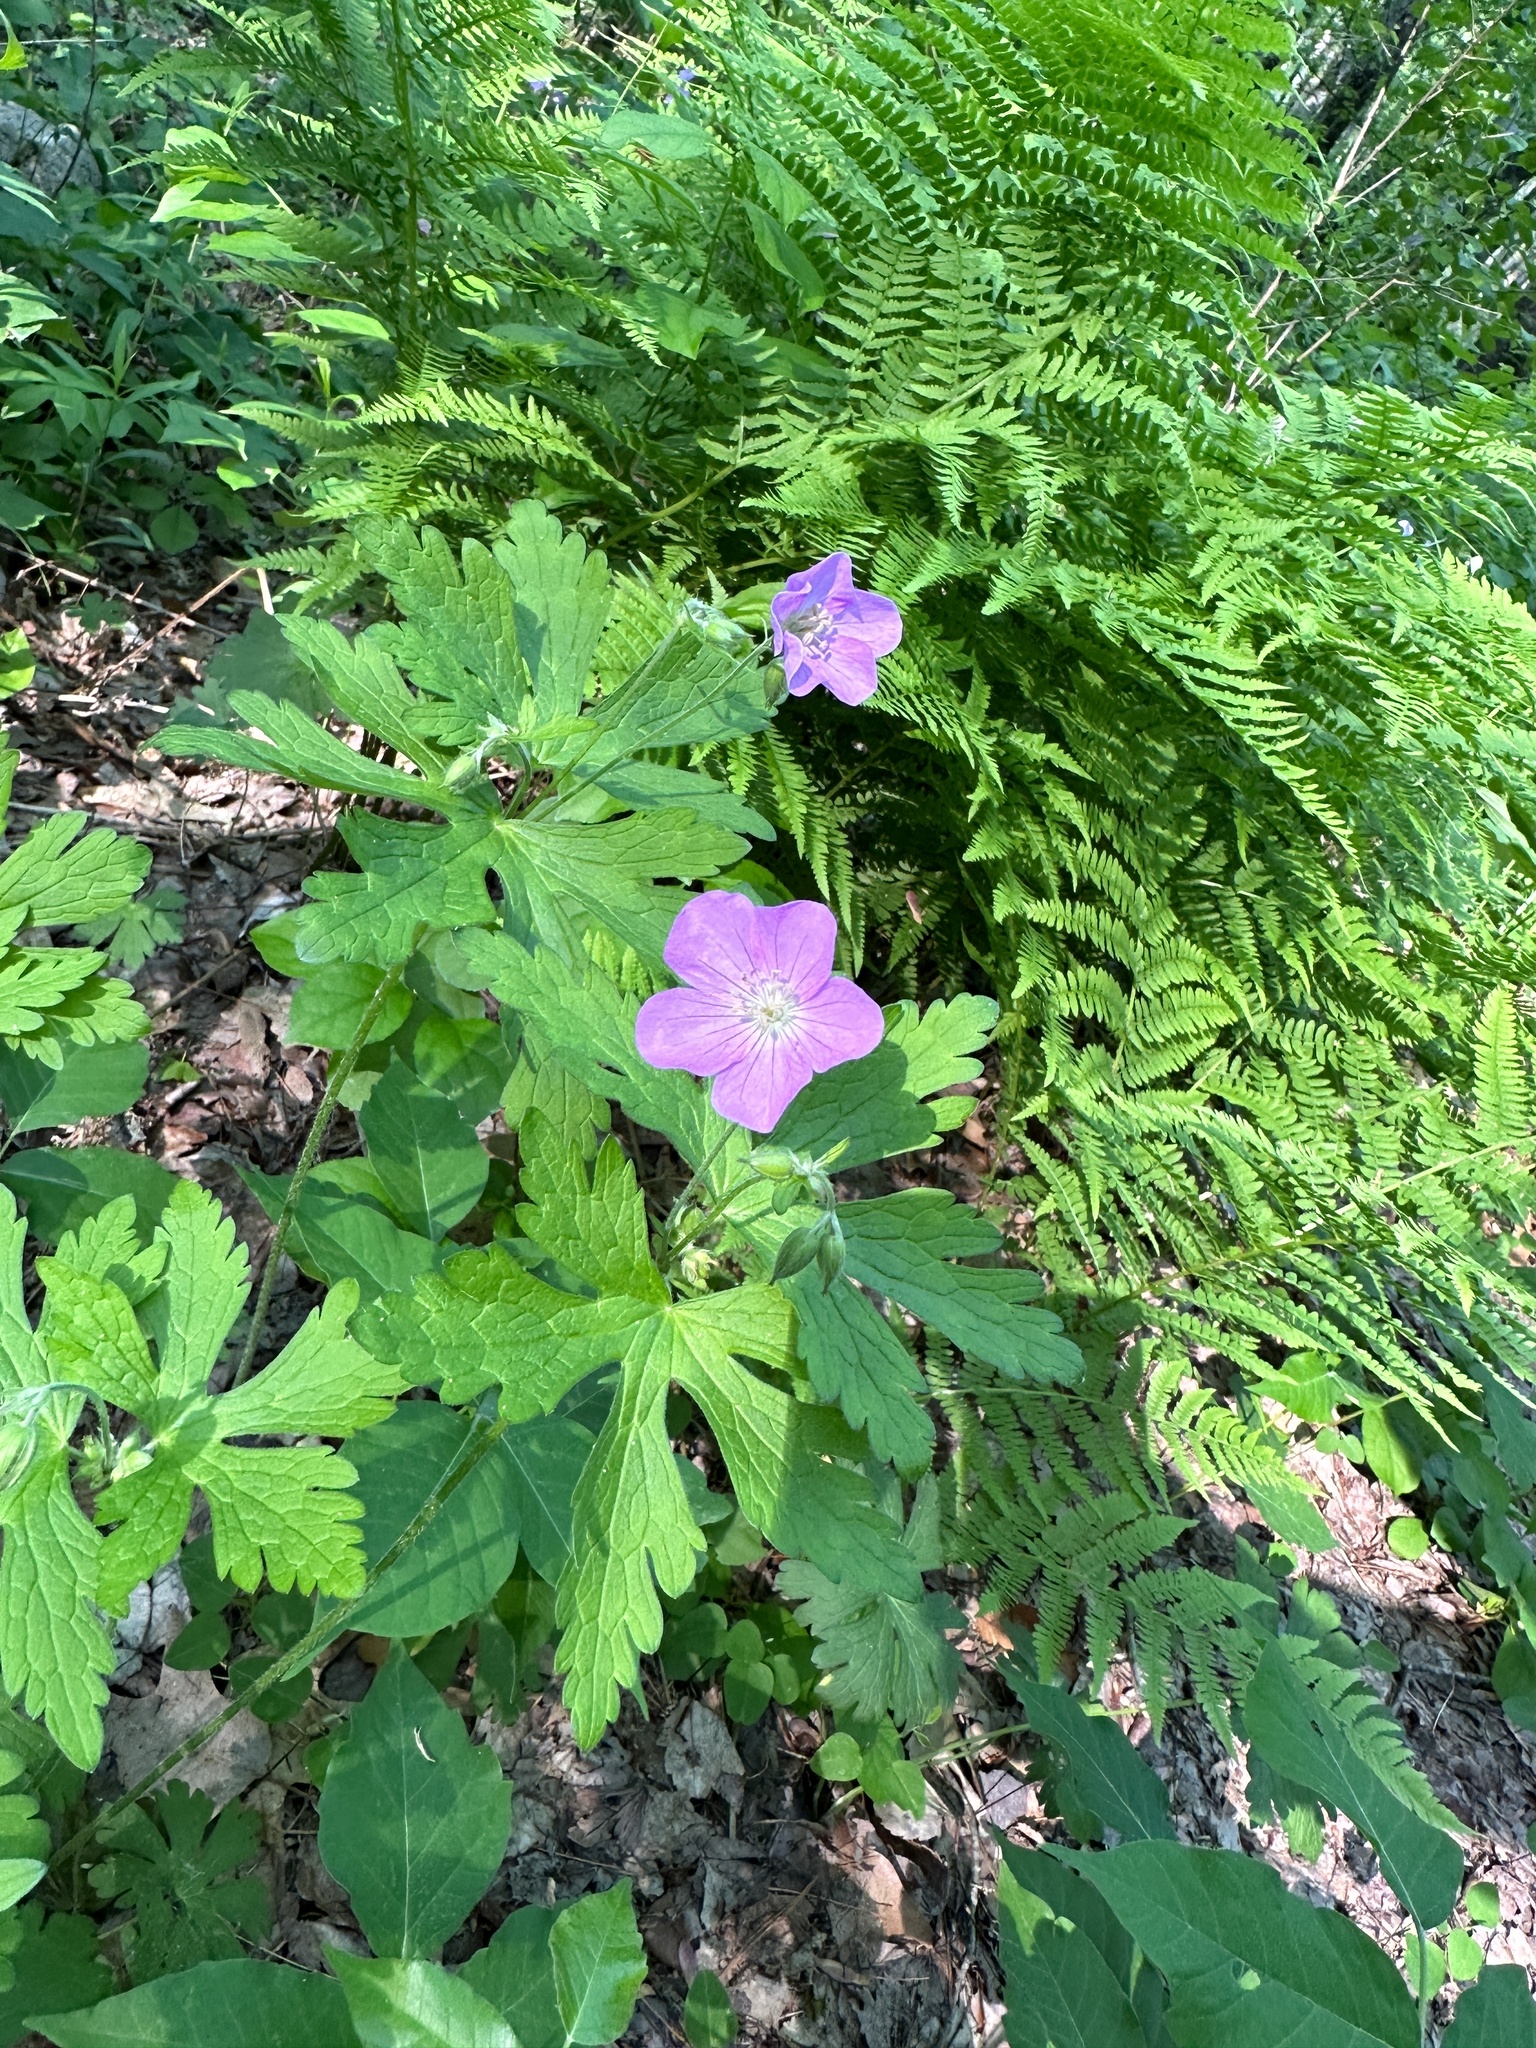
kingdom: Plantae
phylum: Tracheophyta
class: Magnoliopsida
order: Geraniales
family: Geraniaceae
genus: Geranium
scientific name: Geranium maculatum
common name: Spotted geranium
